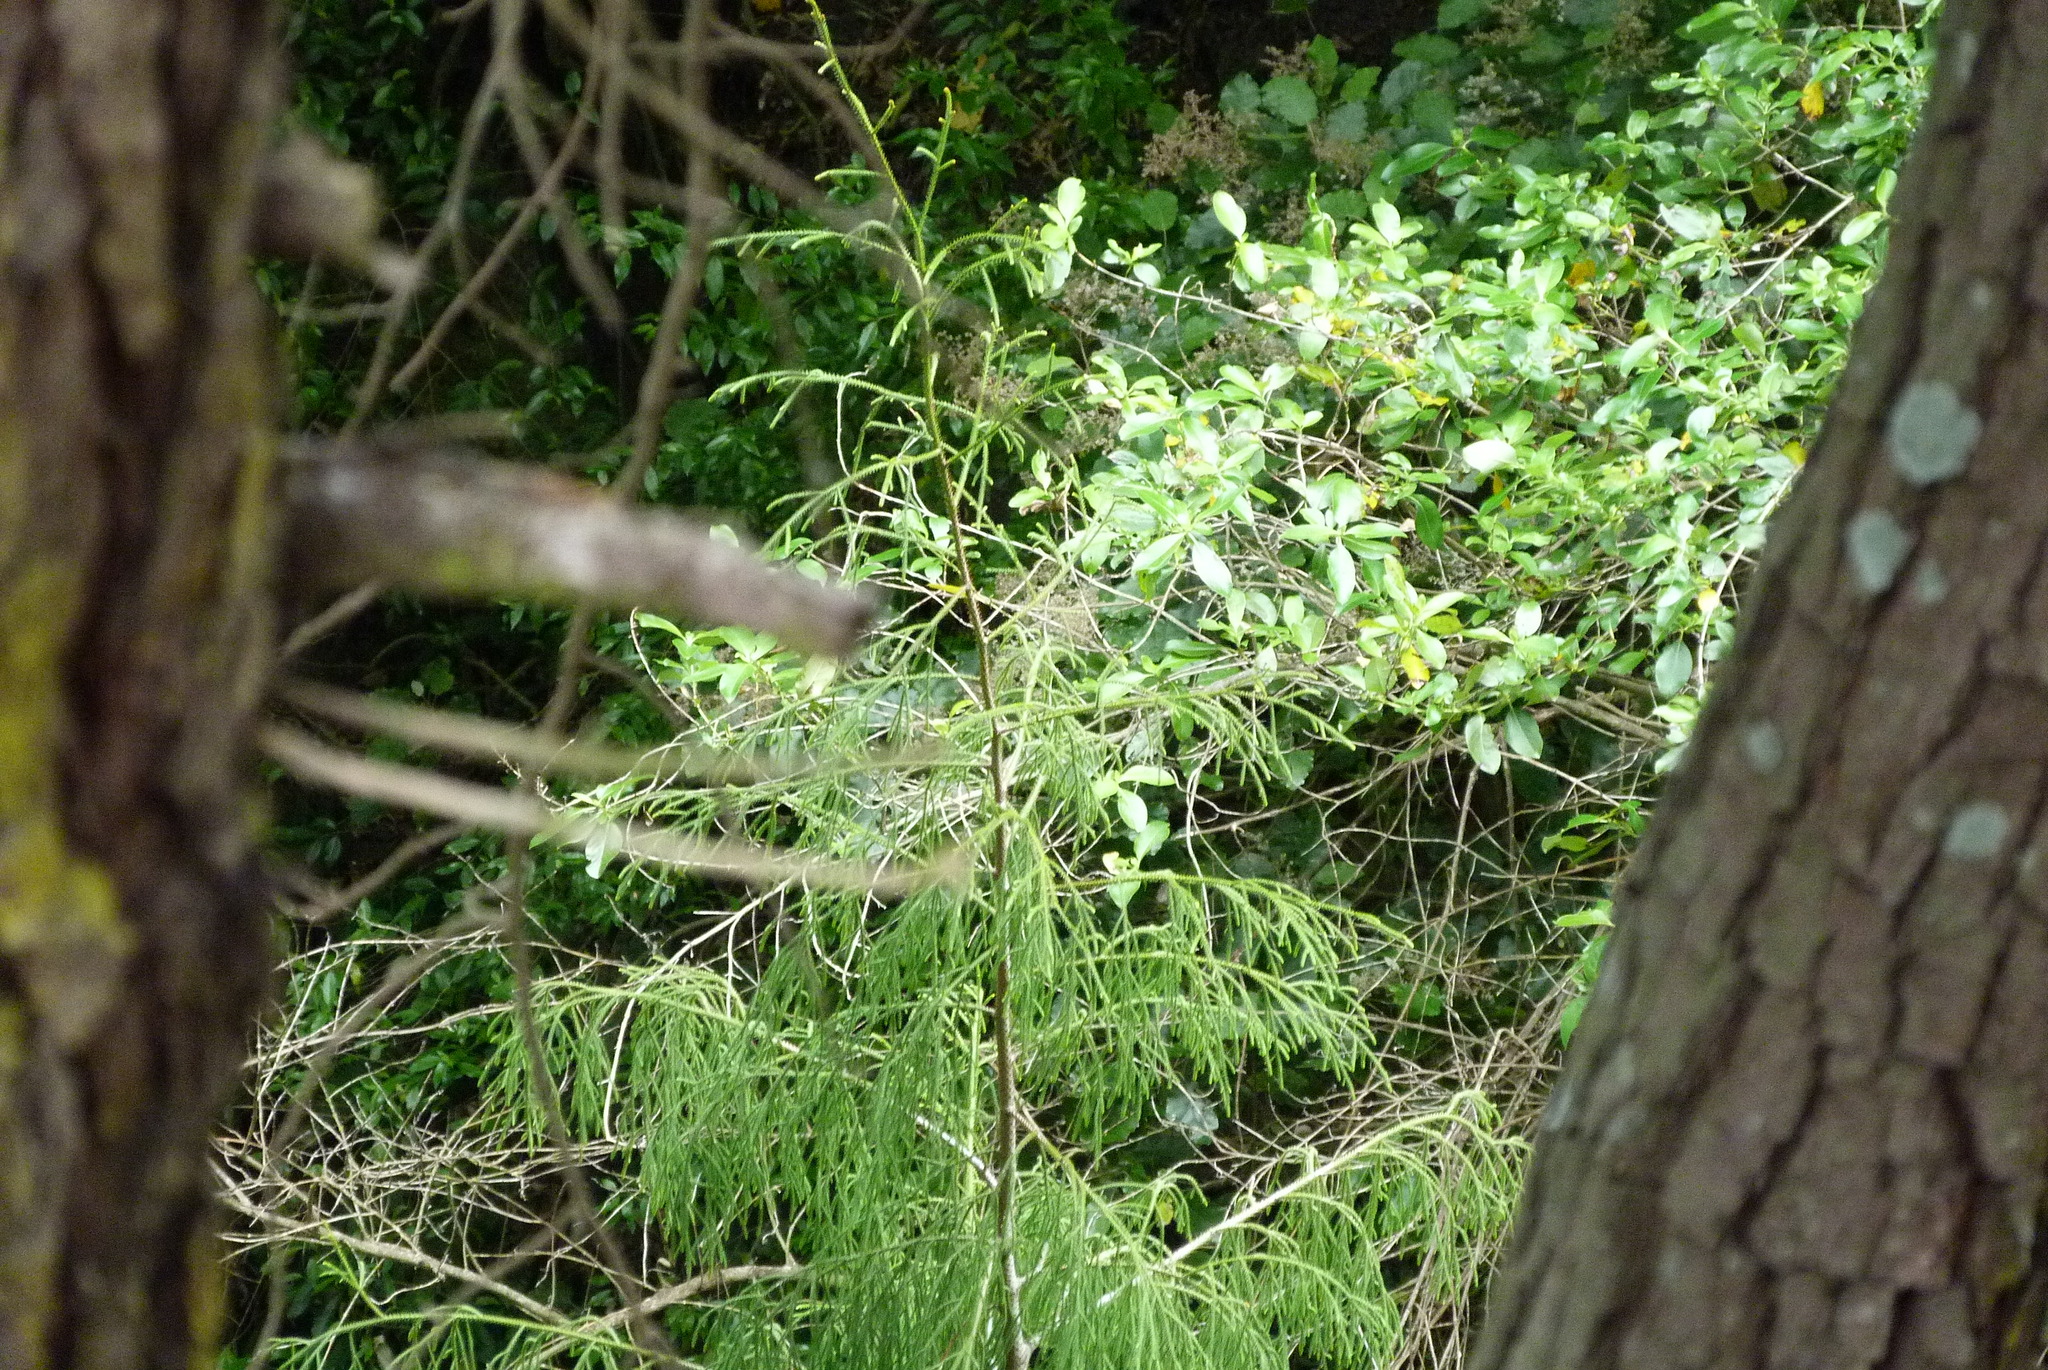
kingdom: Plantae
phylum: Tracheophyta
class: Pinopsida
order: Pinales
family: Podocarpaceae
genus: Dacrydium
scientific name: Dacrydium cupressinum
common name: Red pine
